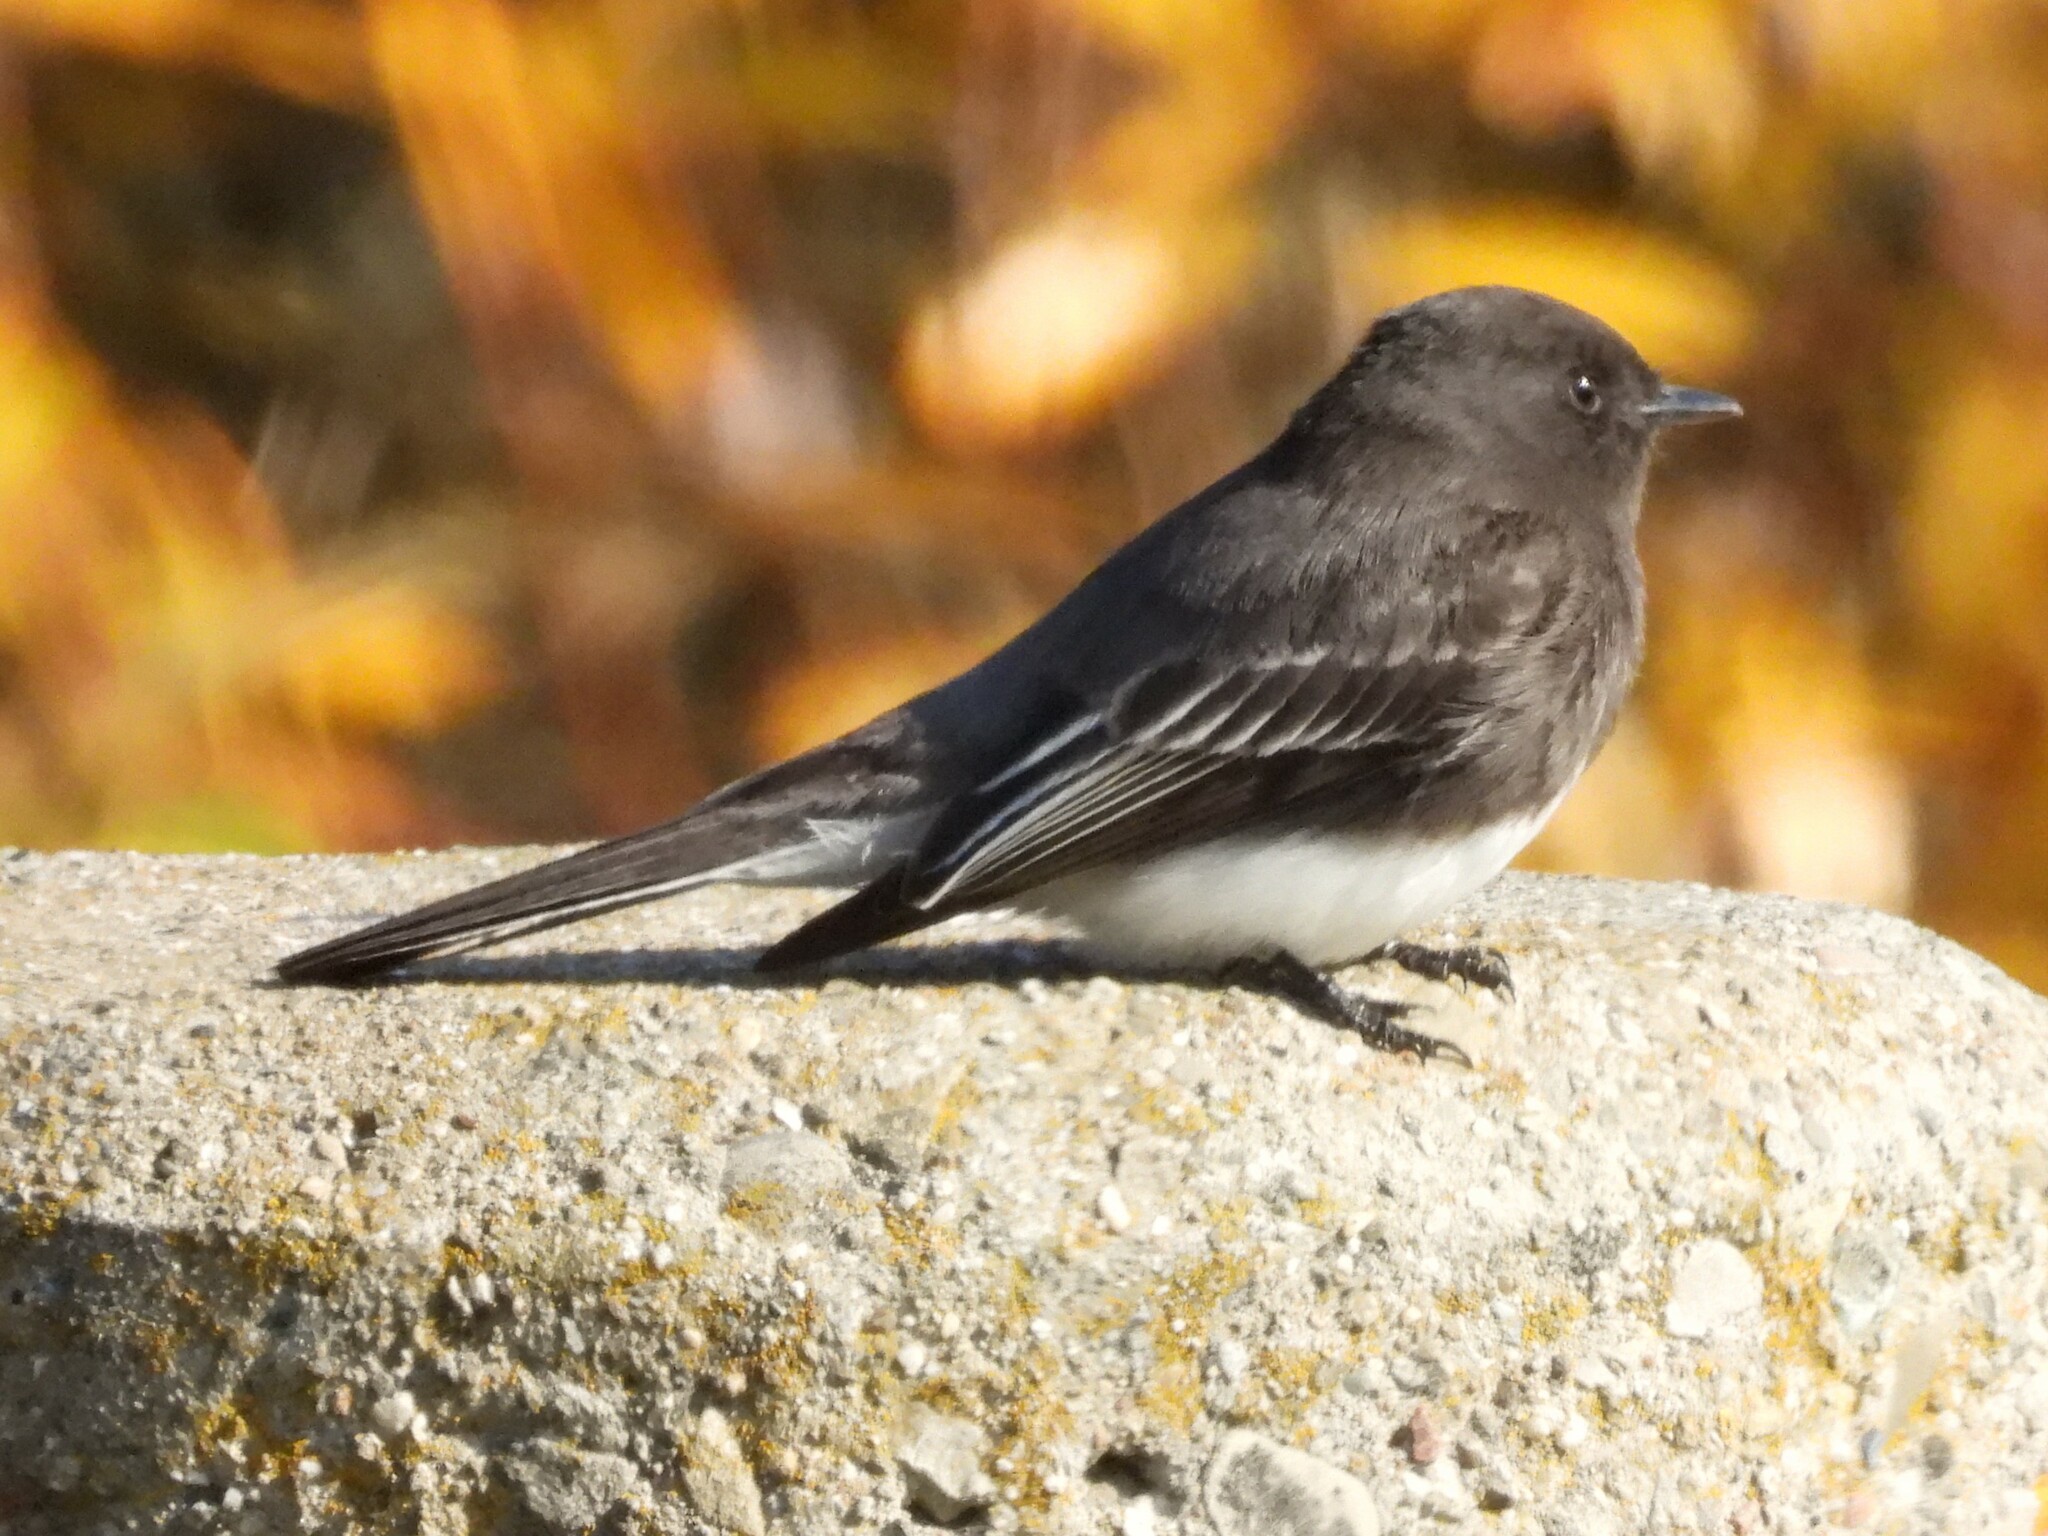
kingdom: Animalia
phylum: Chordata
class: Aves
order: Passeriformes
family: Tyrannidae
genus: Sayornis
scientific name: Sayornis nigricans
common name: Black phoebe
